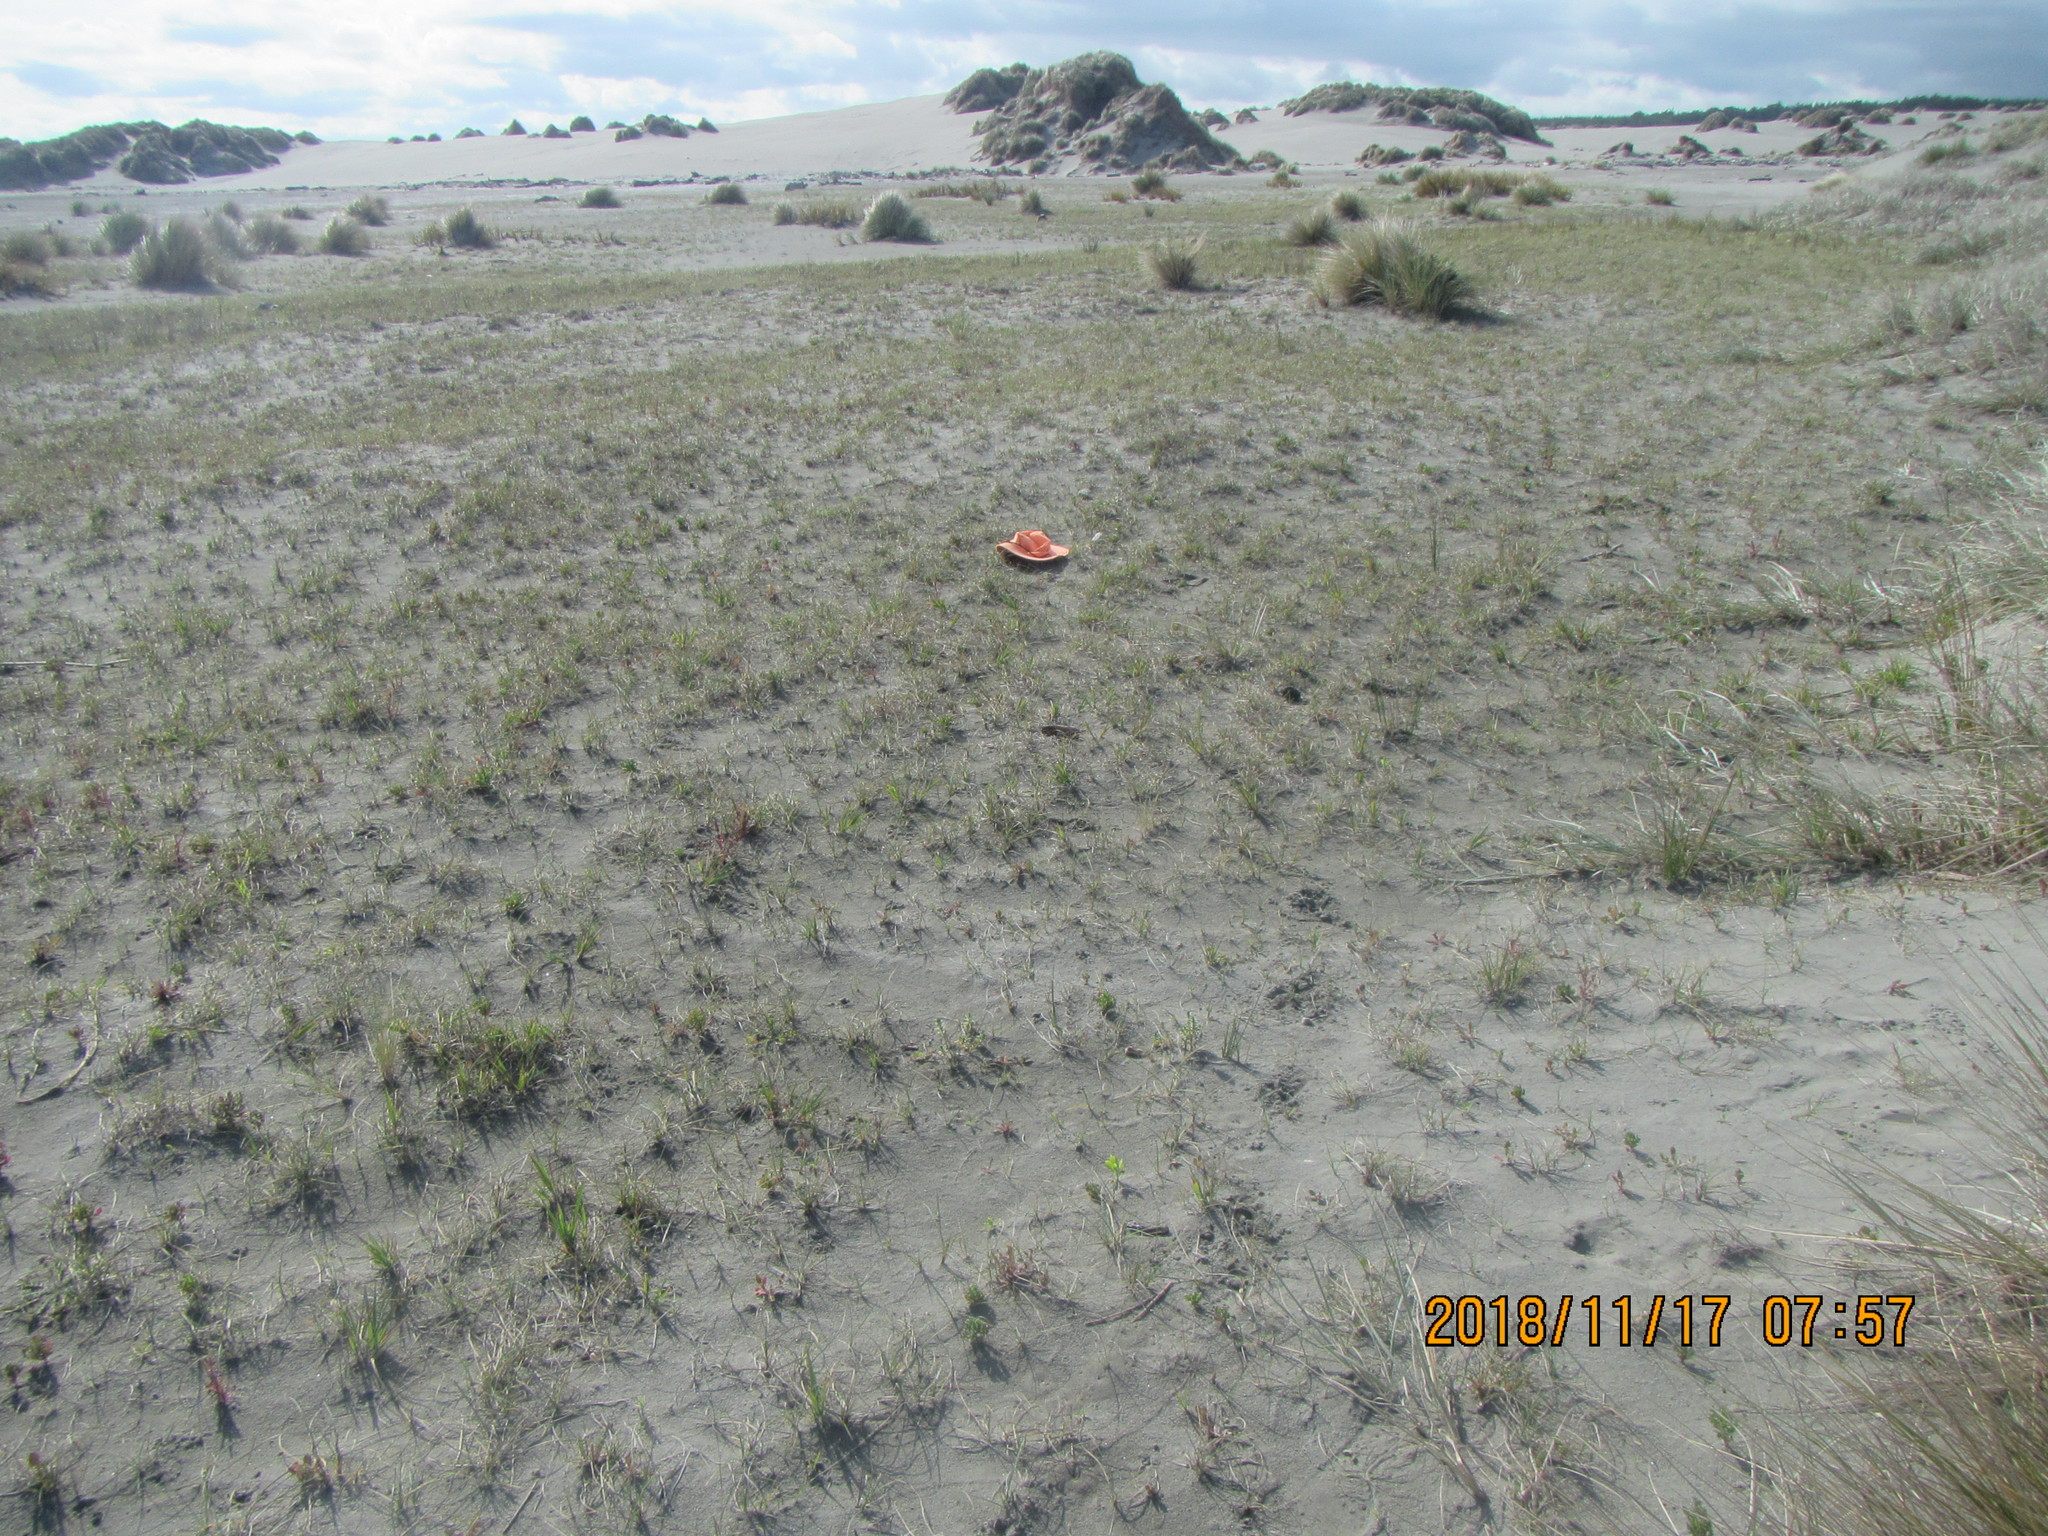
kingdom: Plantae
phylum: Tracheophyta
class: Magnoliopsida
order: Apiales
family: Apiaceae
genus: Lilaeopsis
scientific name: Lilaeopsis novae-zelandiae
